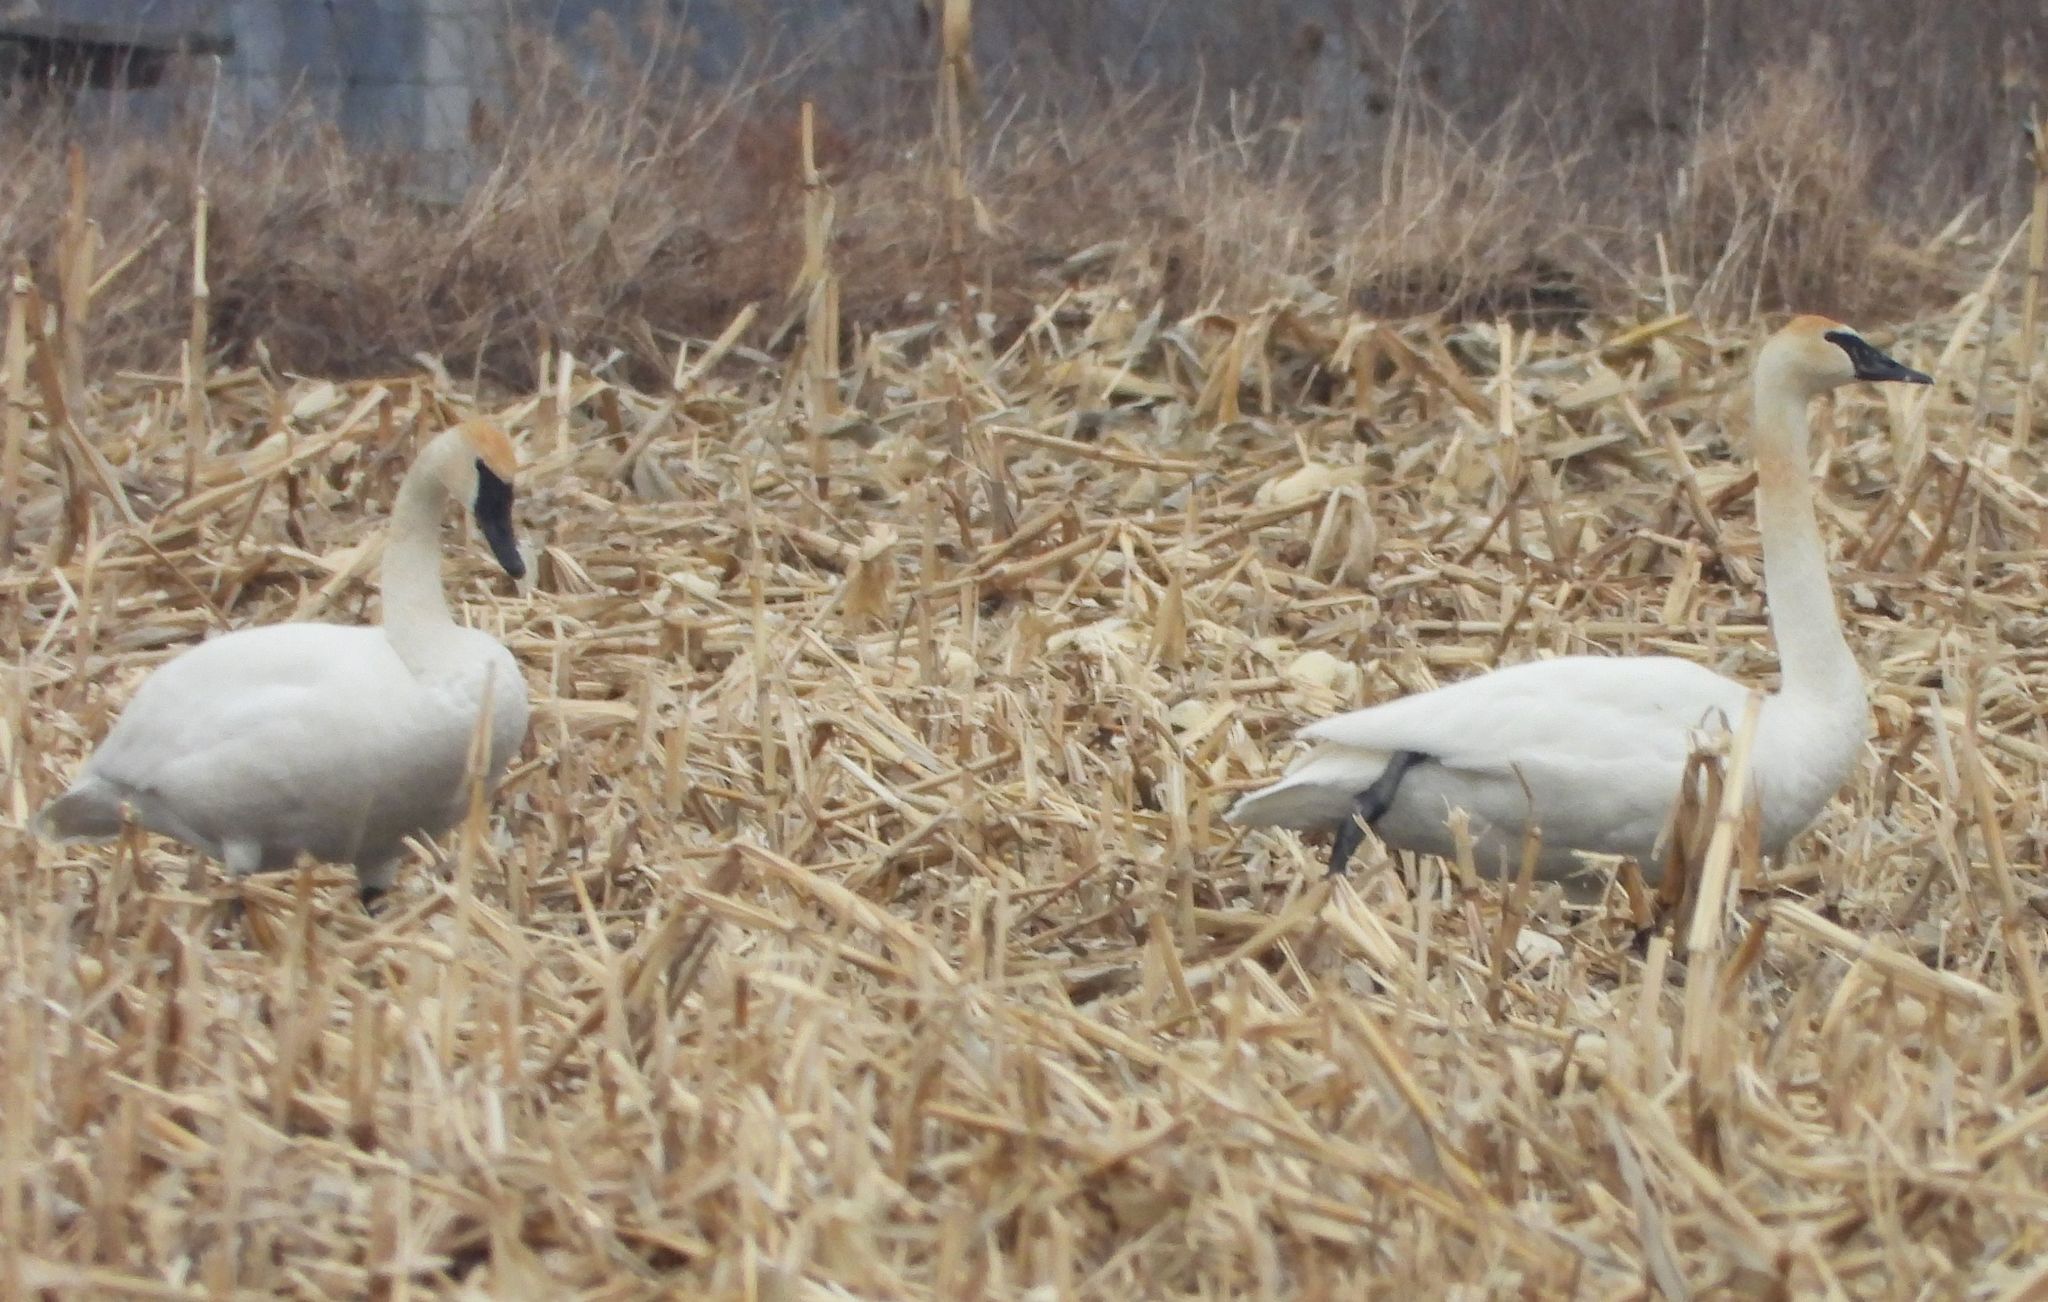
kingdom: Animalia
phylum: Chordata
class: Aves
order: Anseriformes
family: Anatidae
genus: Cygnus
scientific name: Cygnus buccinator
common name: Trumpeter swan
